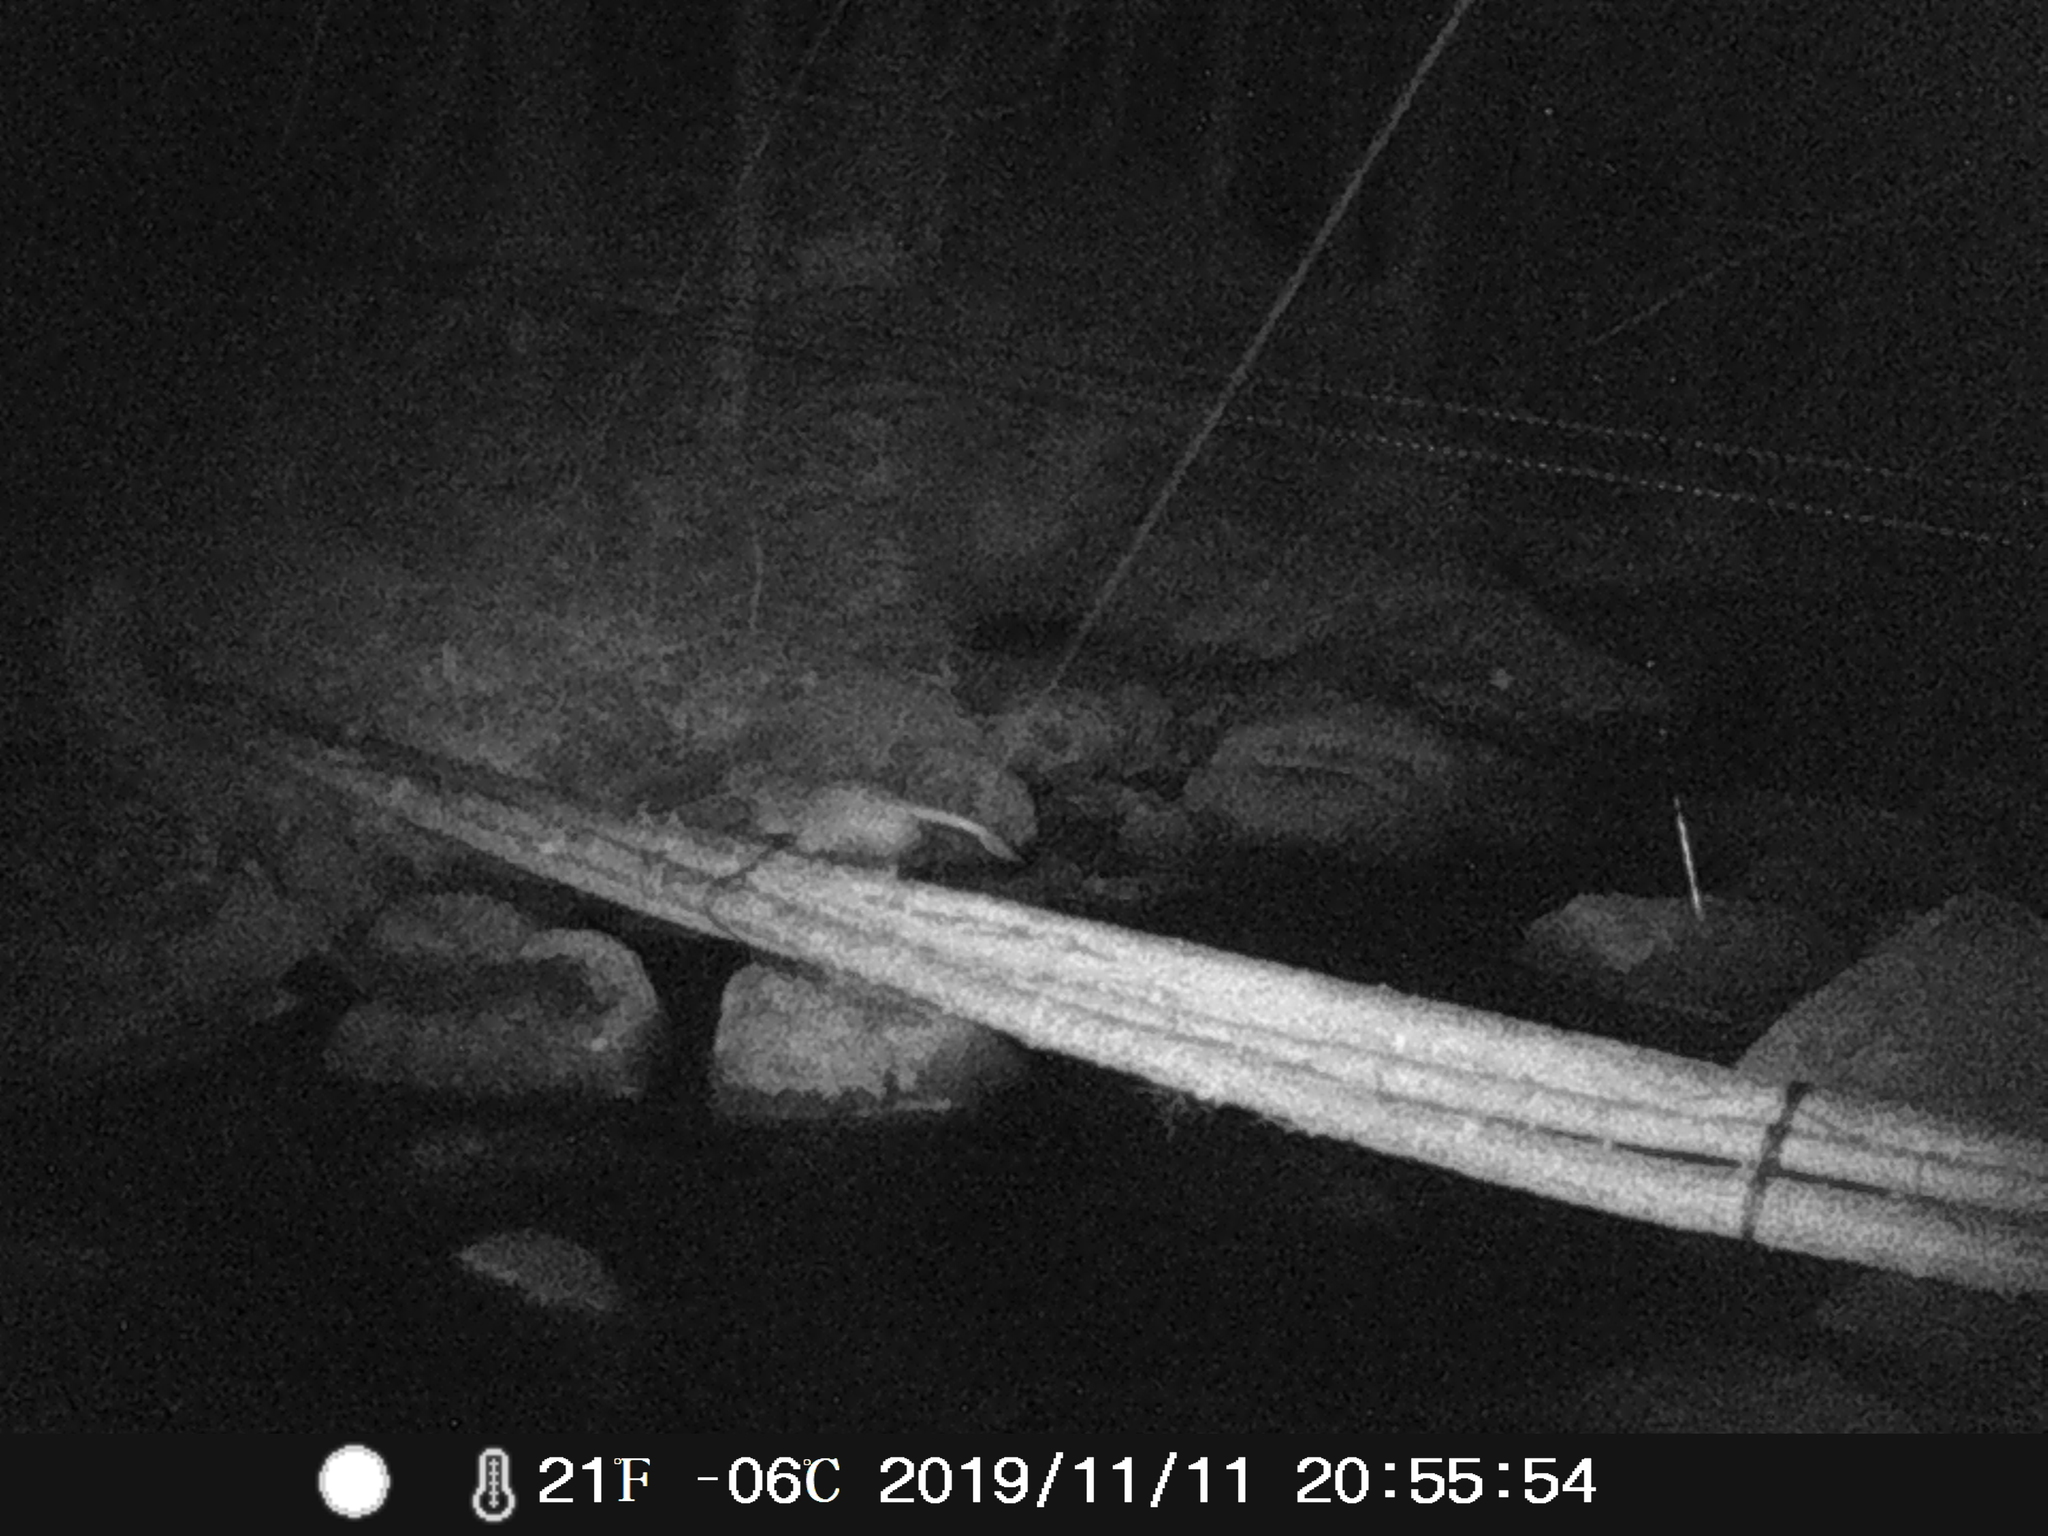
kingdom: Animalia
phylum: Chordata
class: Mammalia
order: Didelphimorphia
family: Didelphidae
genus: Didelphis
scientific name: Didelphis virginiana
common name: Virginia opossum
